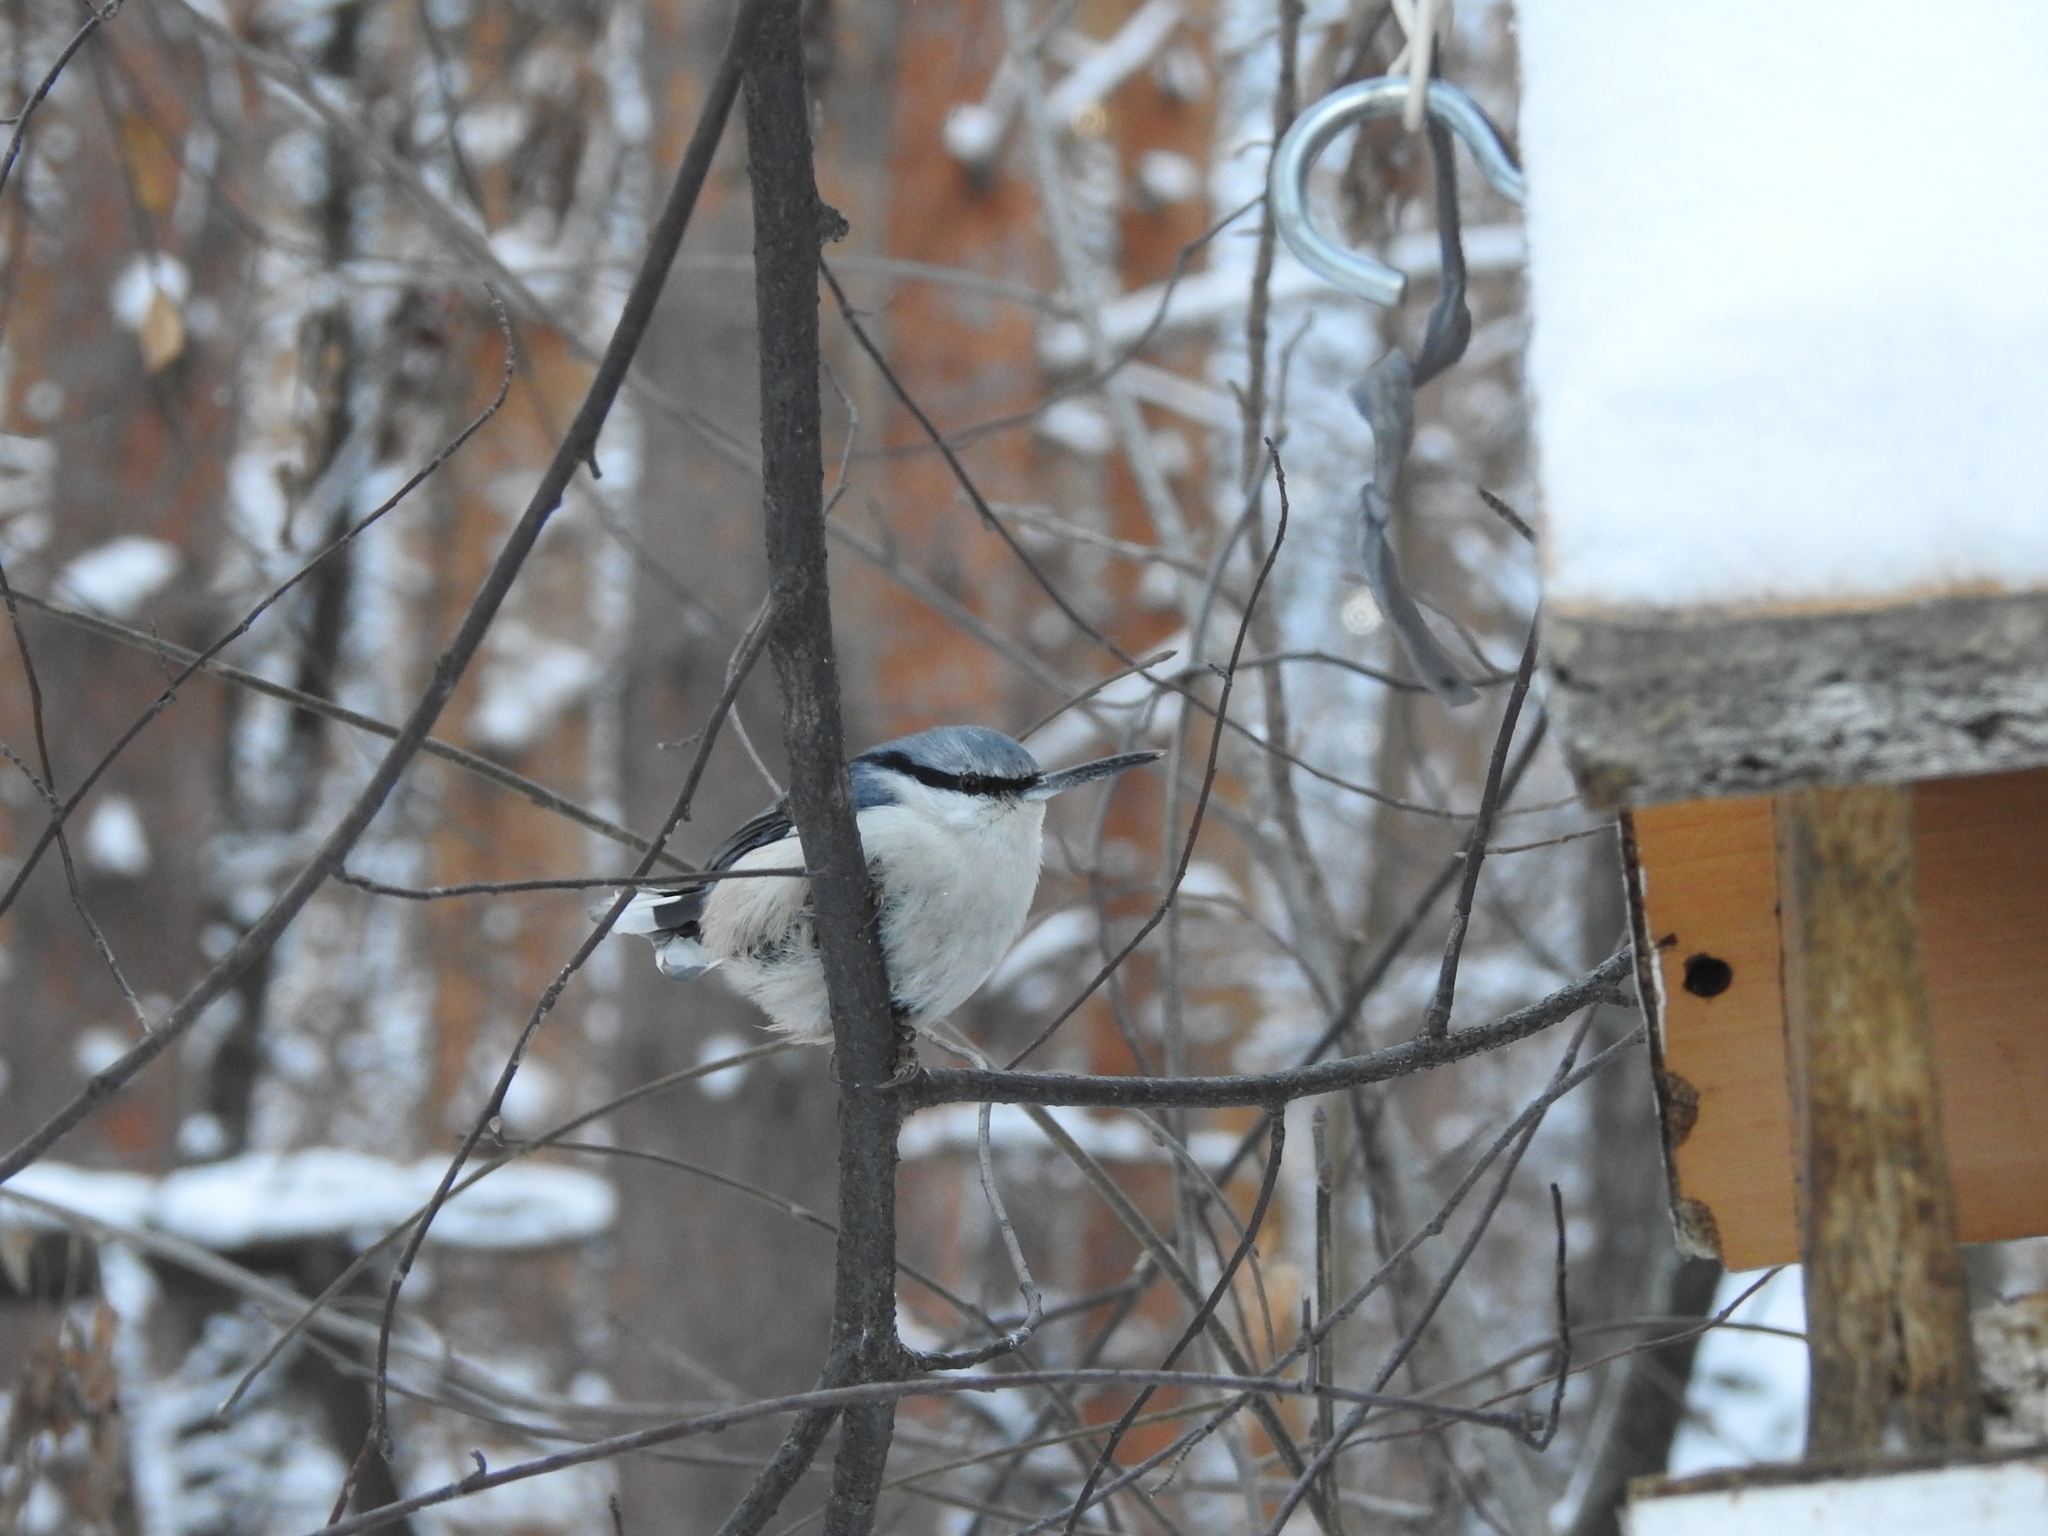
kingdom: Animalia
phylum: Chordata
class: Aves
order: Passeriformes
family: Sittidae
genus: Sitta
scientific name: Sitta europaea
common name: Eurasian nuthatch
